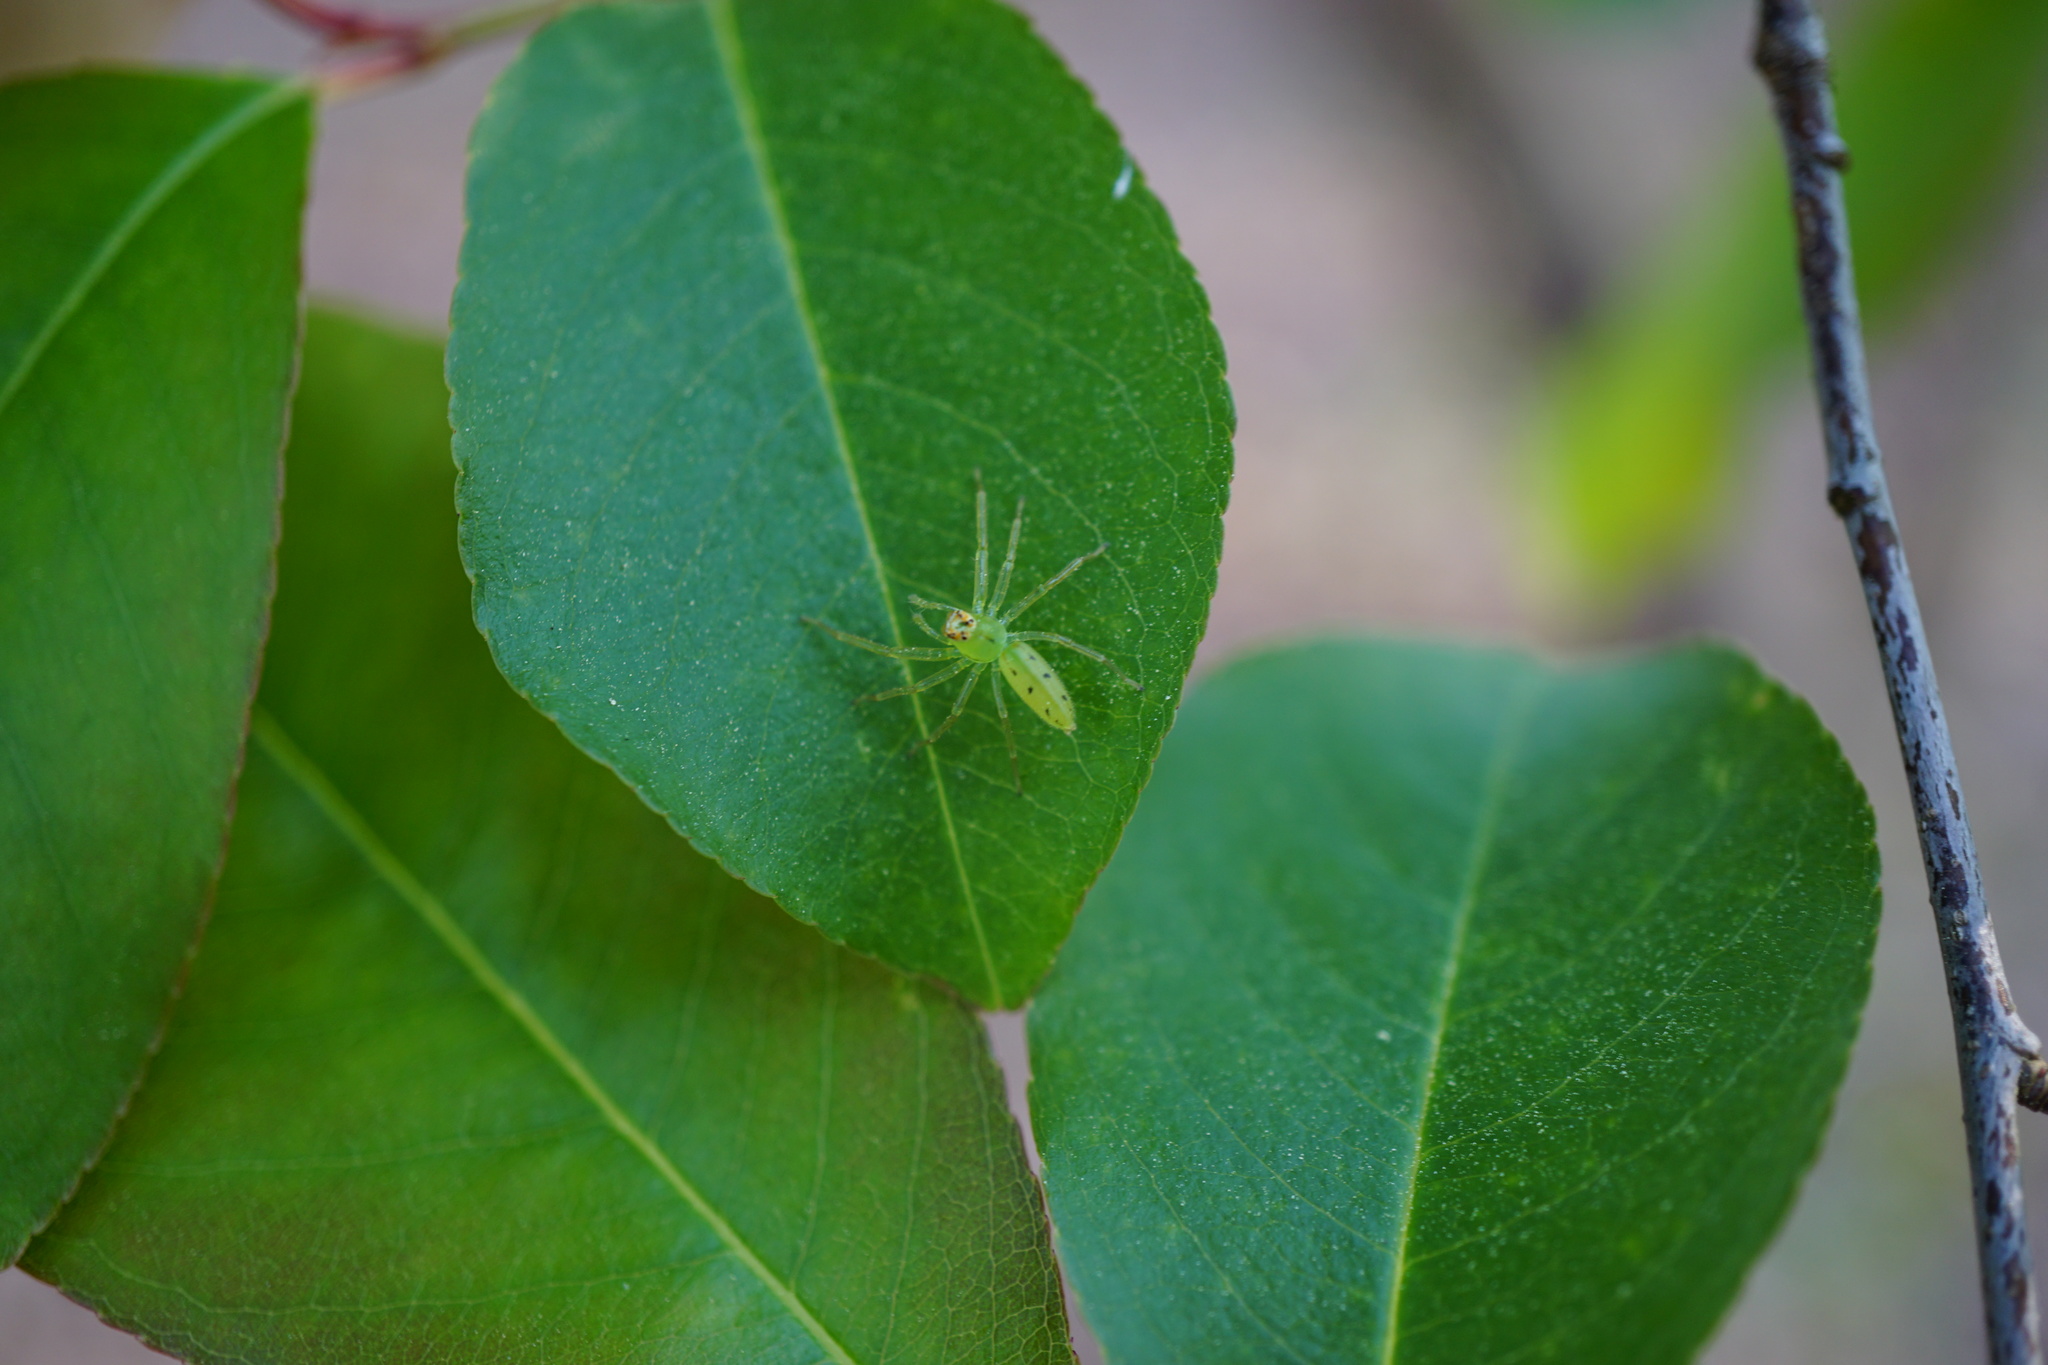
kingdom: Animalia
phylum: Arthropoda
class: Arachnida
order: Araneae
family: Salticidae
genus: Lyssomanes
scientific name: Lyssomanes viridis
